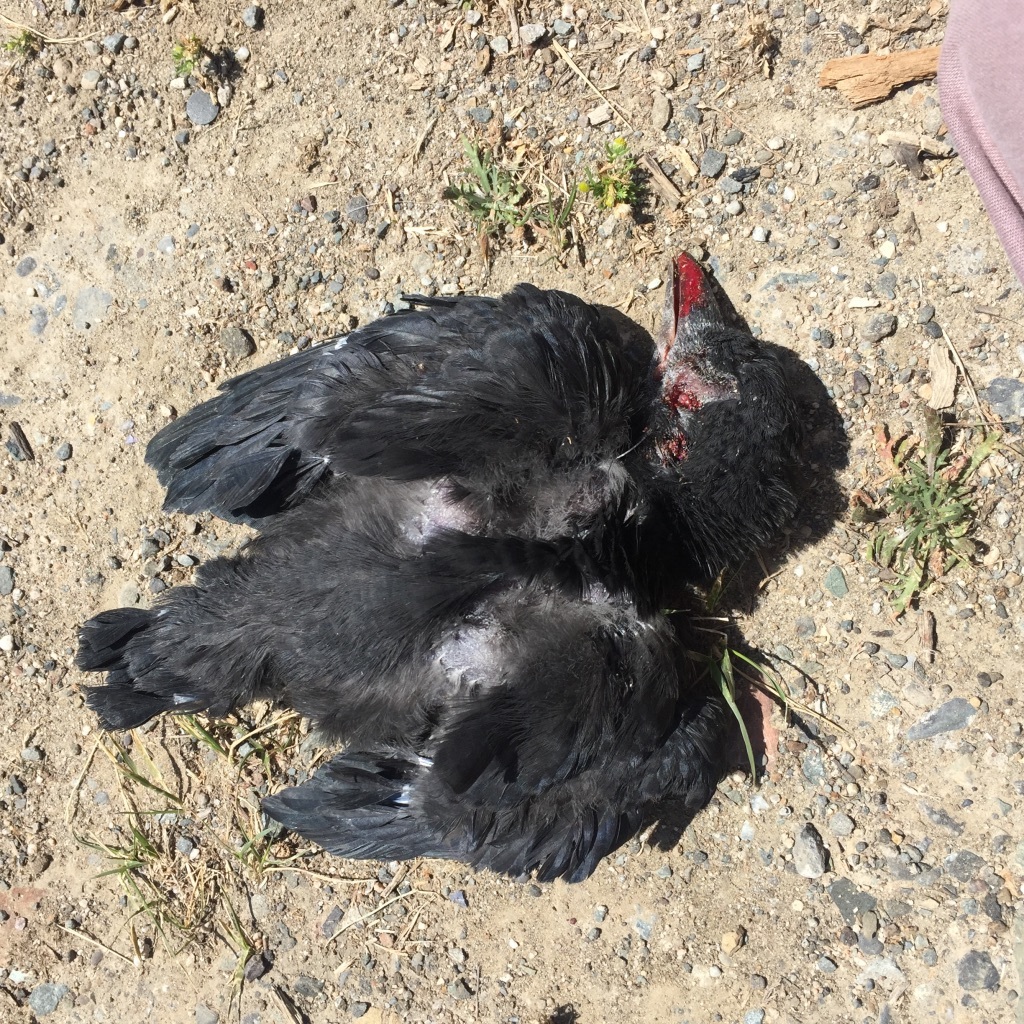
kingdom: Animalia
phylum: Chordata
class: Aves
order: Passeriformes
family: Corvidae
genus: Corvus
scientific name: Corvus brachyrhynchos
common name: American crow
